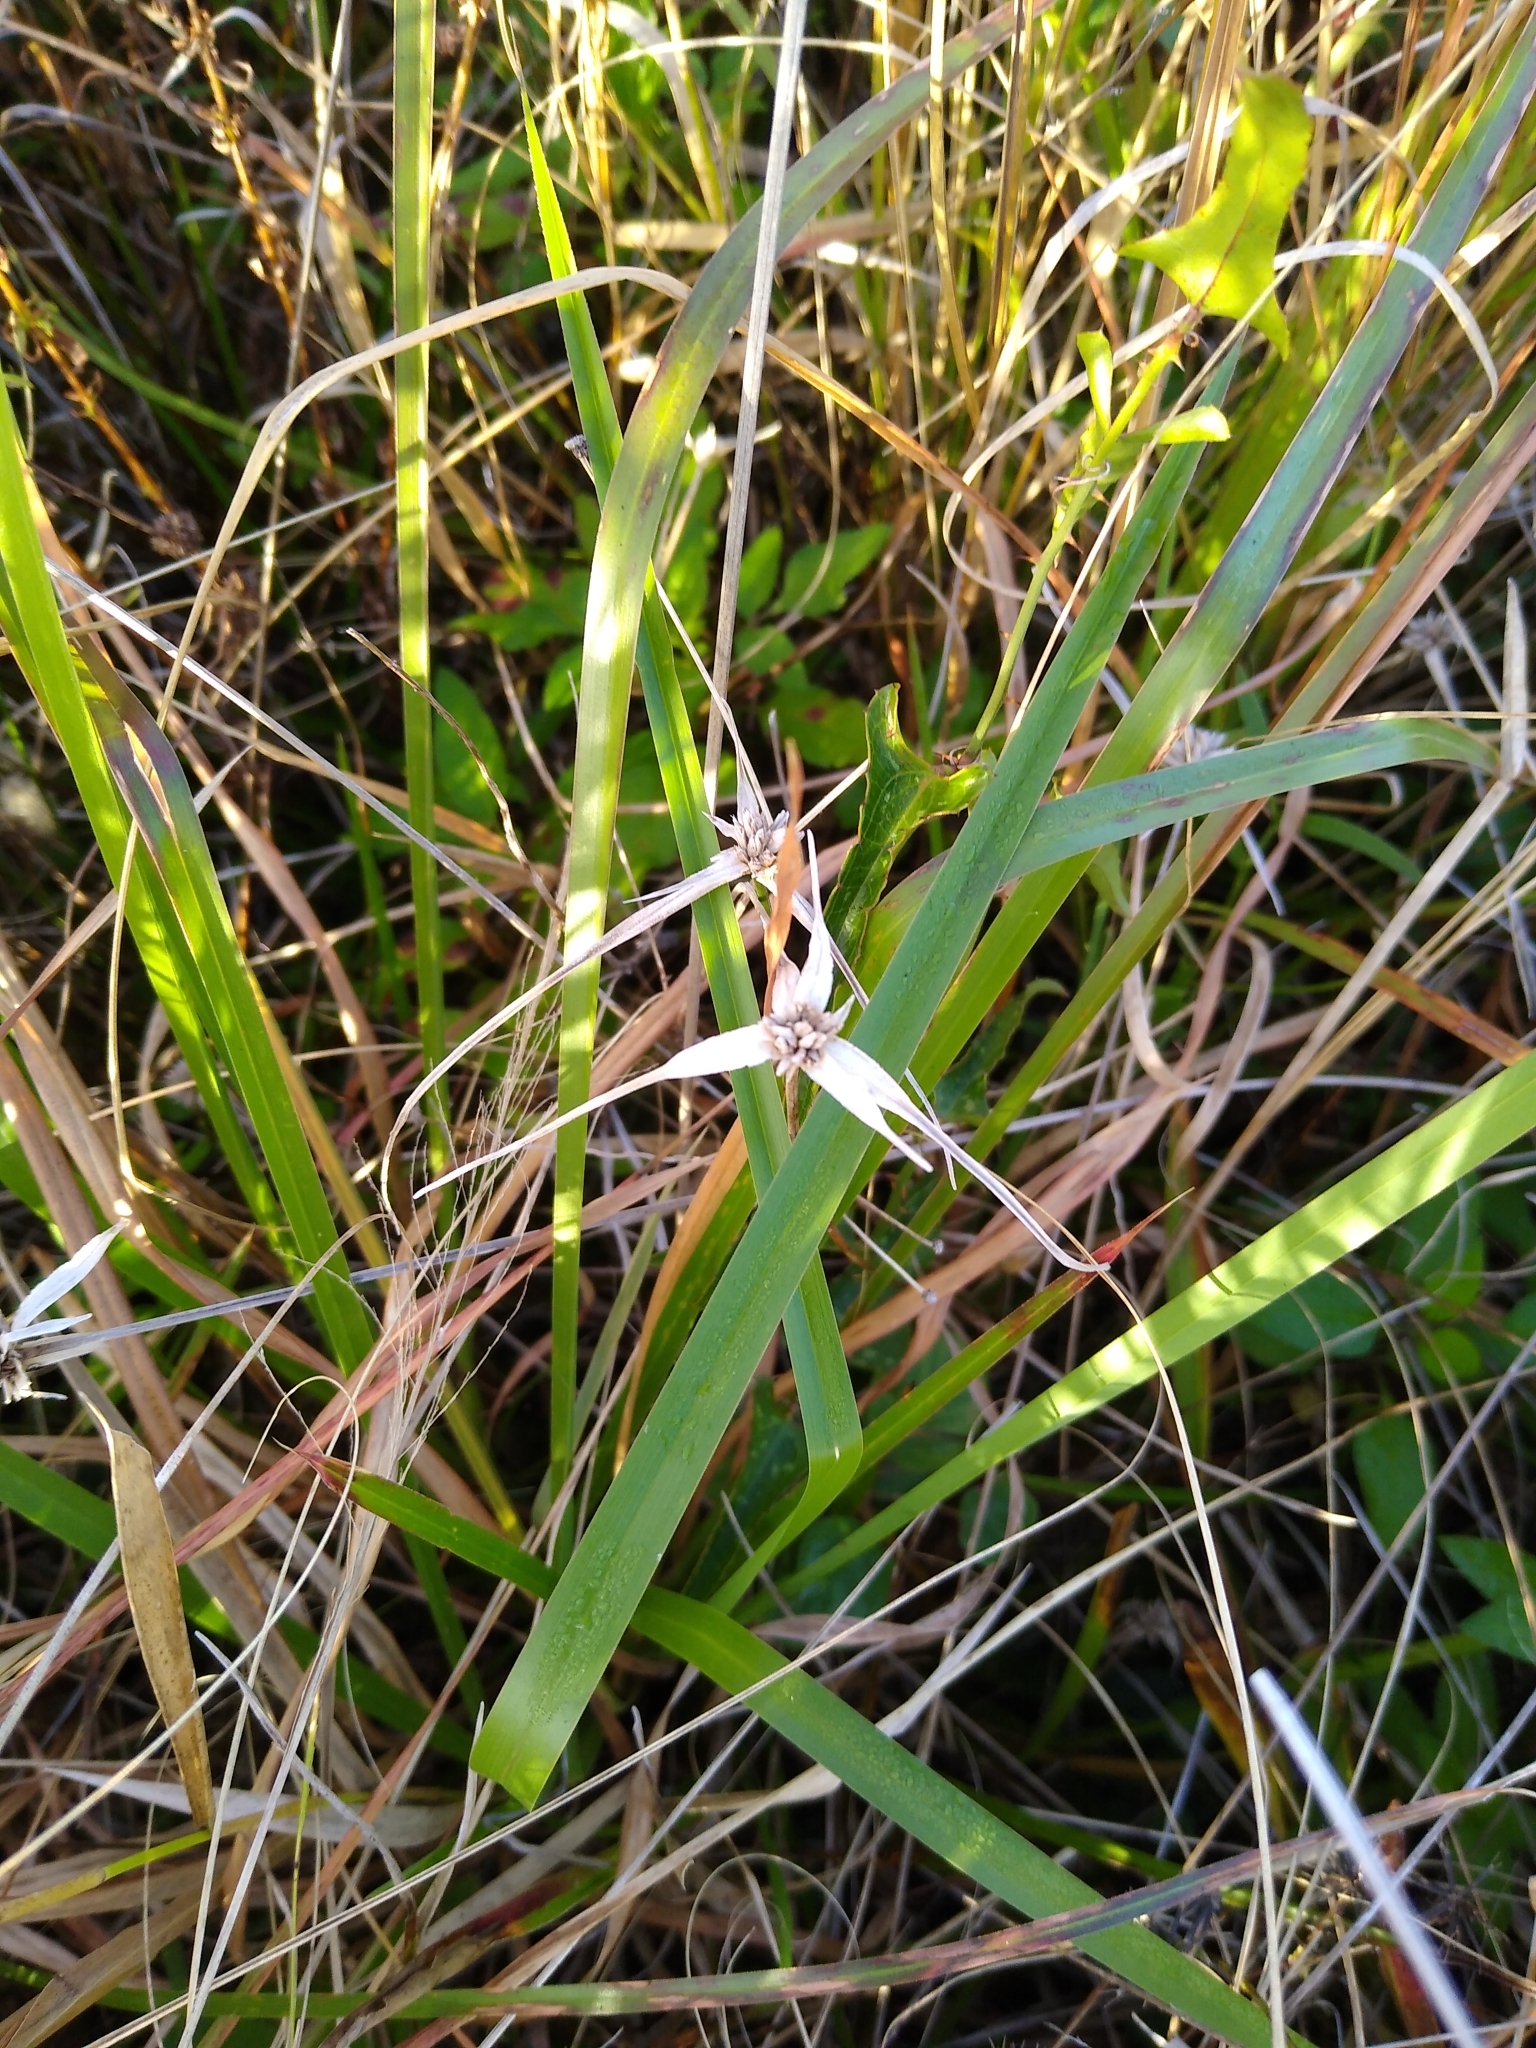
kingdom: Plantae
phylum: Tracheophyta
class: Liliopsida
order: Poales
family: Cyperaceae
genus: Rhynchospora
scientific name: Rhynchospora colorata
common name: Star sedge
